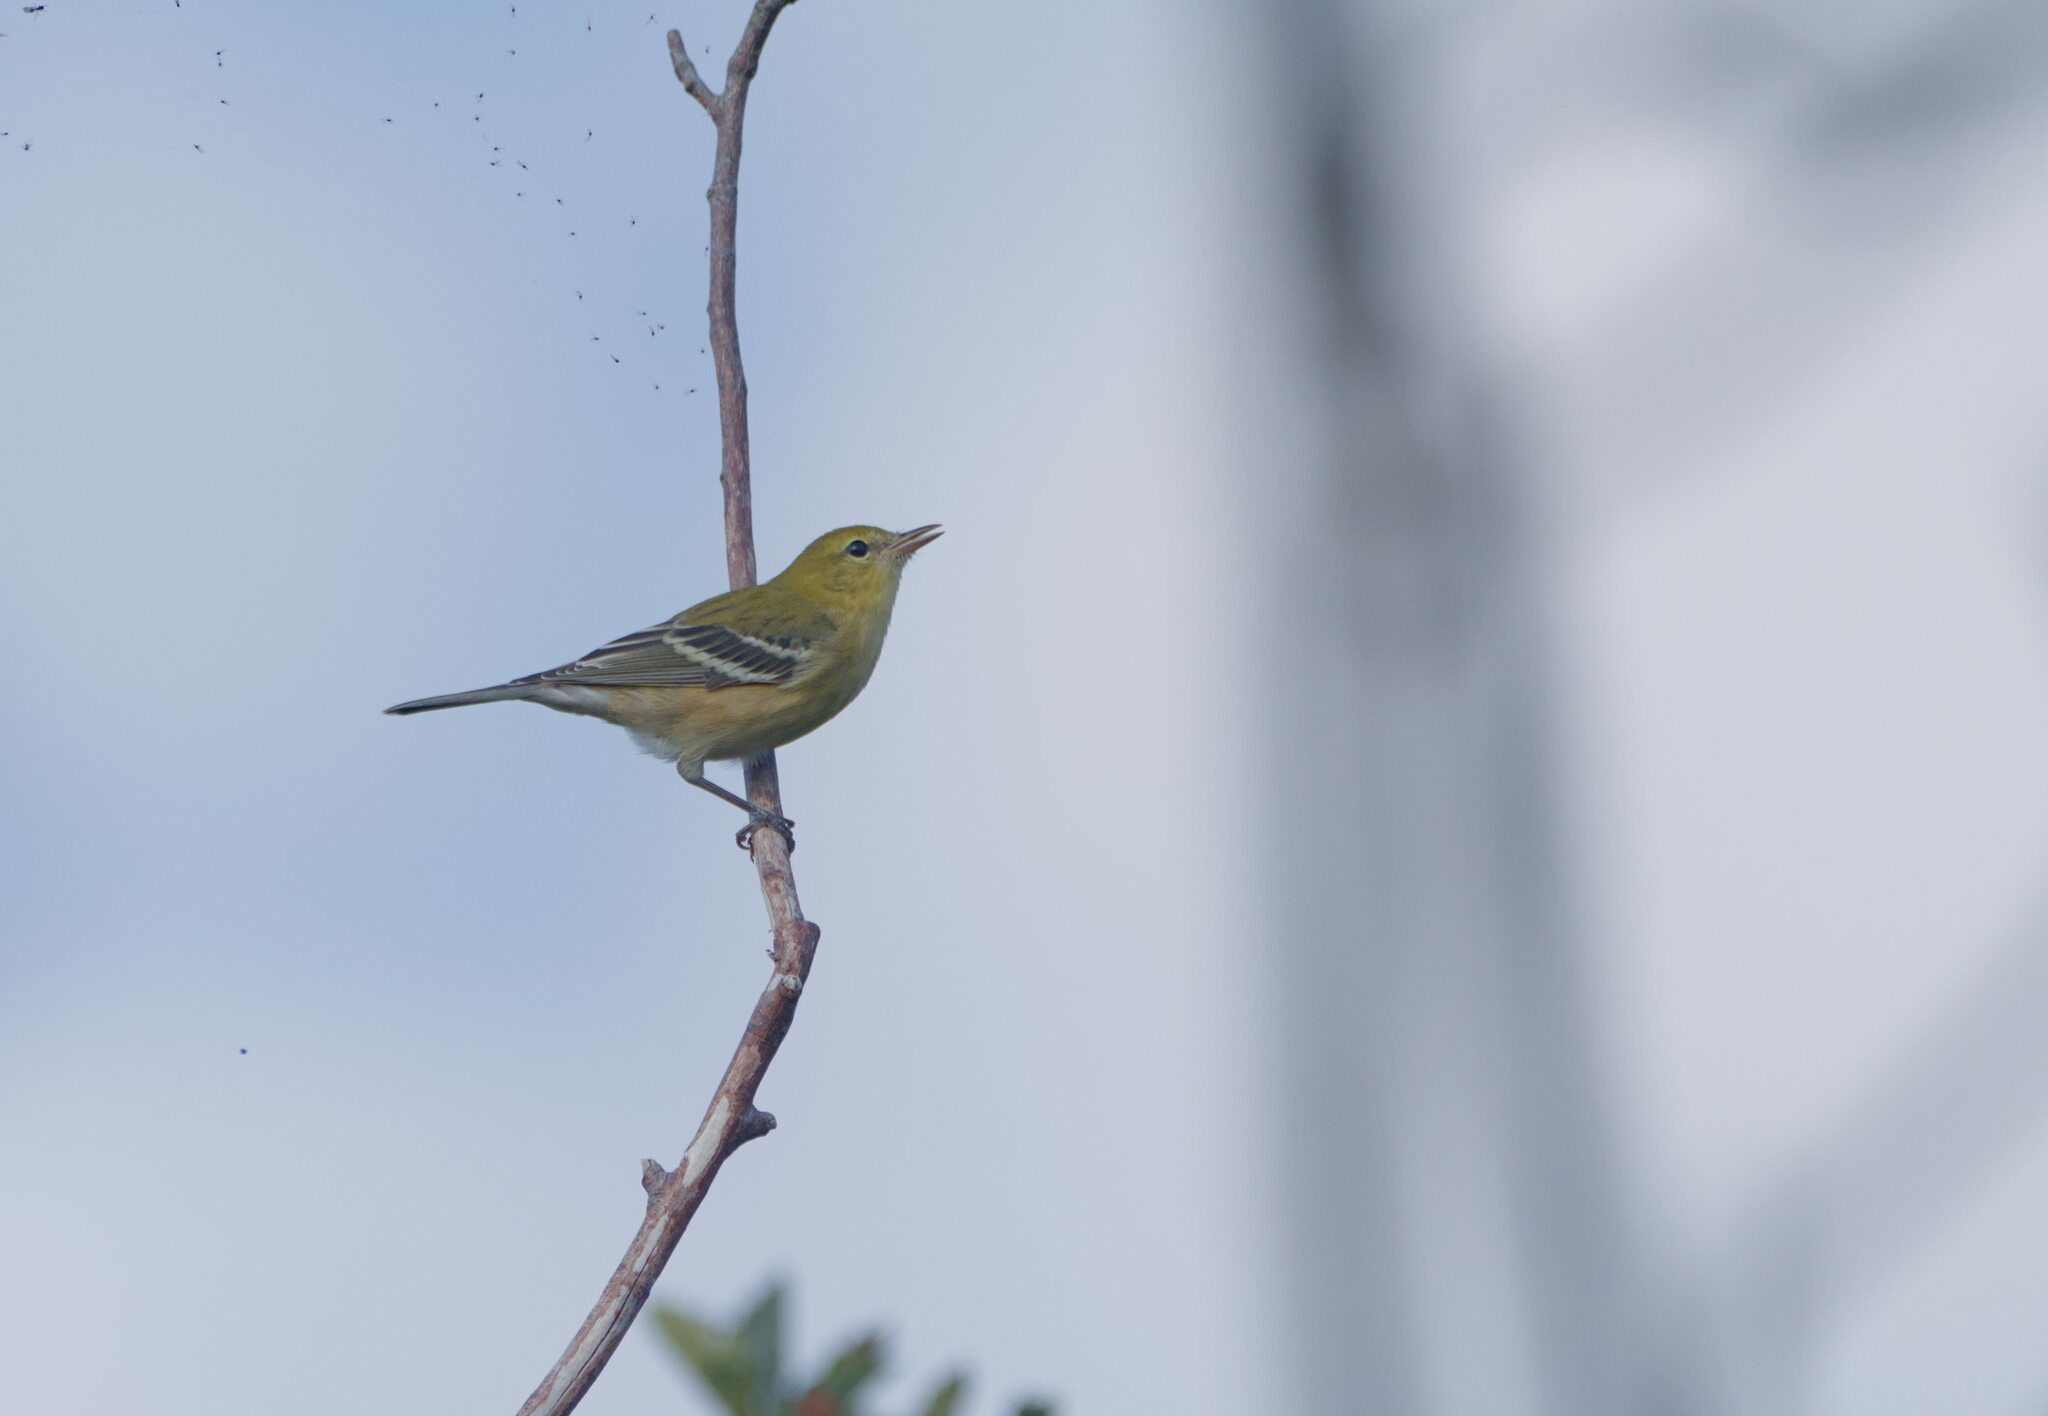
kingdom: Animalia
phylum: Chordata
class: Aves
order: Passeriformes
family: Parulidae
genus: Setophaga
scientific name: Setophaga castanea
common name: Bay-breasted warbler
